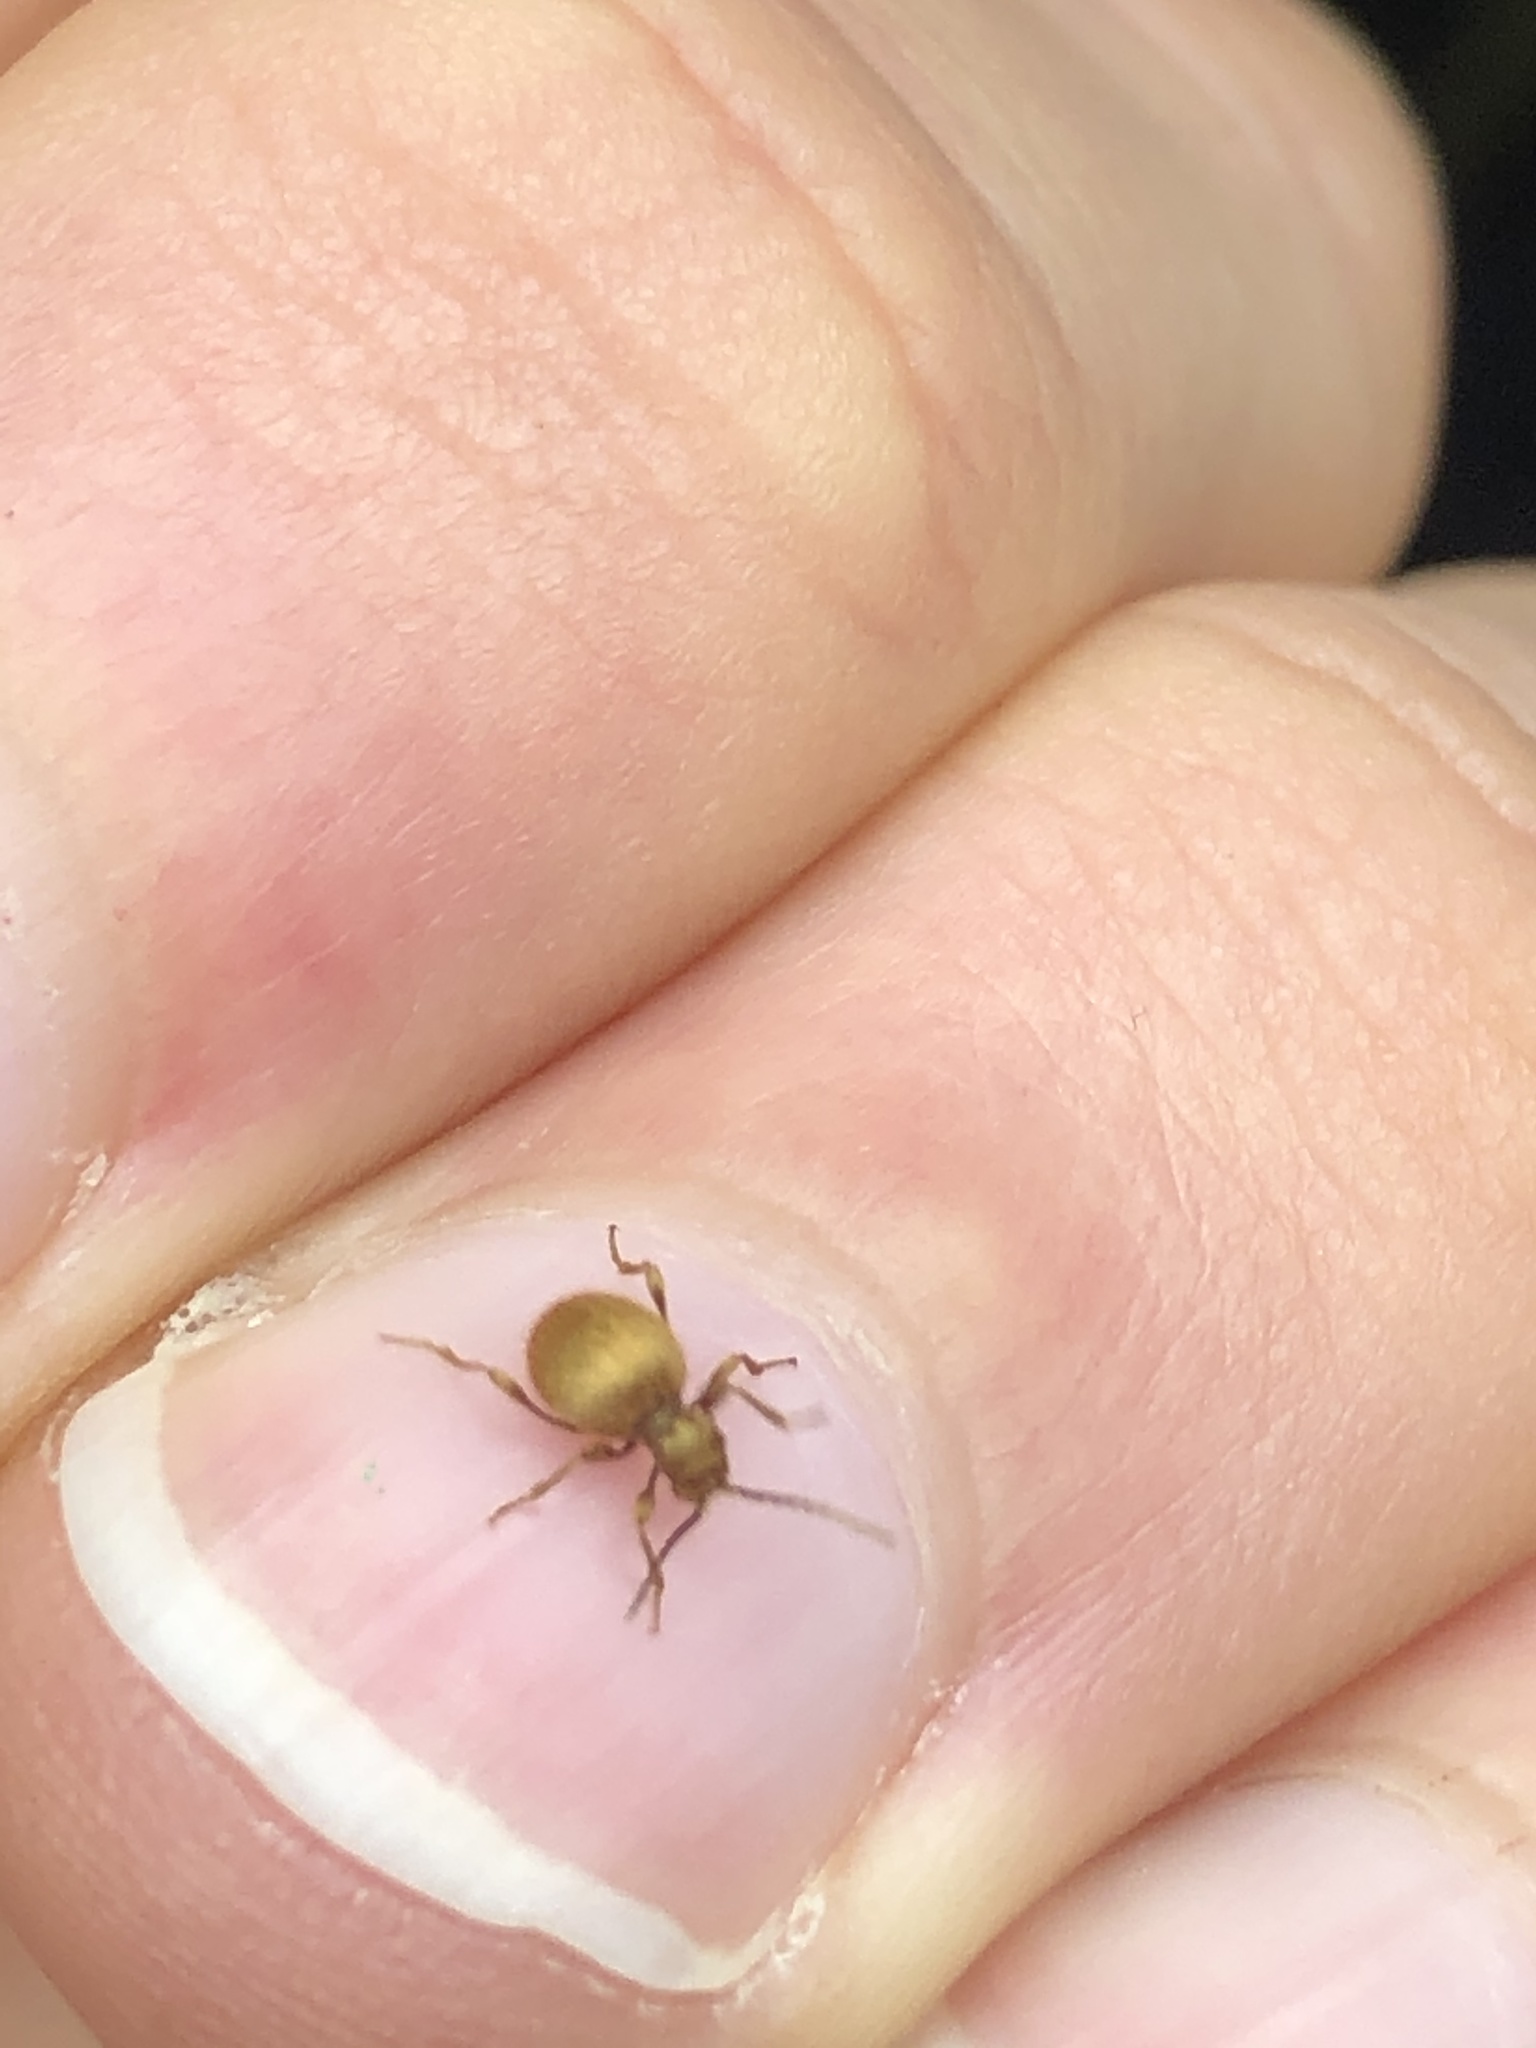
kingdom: Animalia
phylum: Arthropoda
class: Insecta
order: Coleoptera
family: Ptinidae
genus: Niptus
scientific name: Niptus hololeucus
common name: Golden spider beetle
